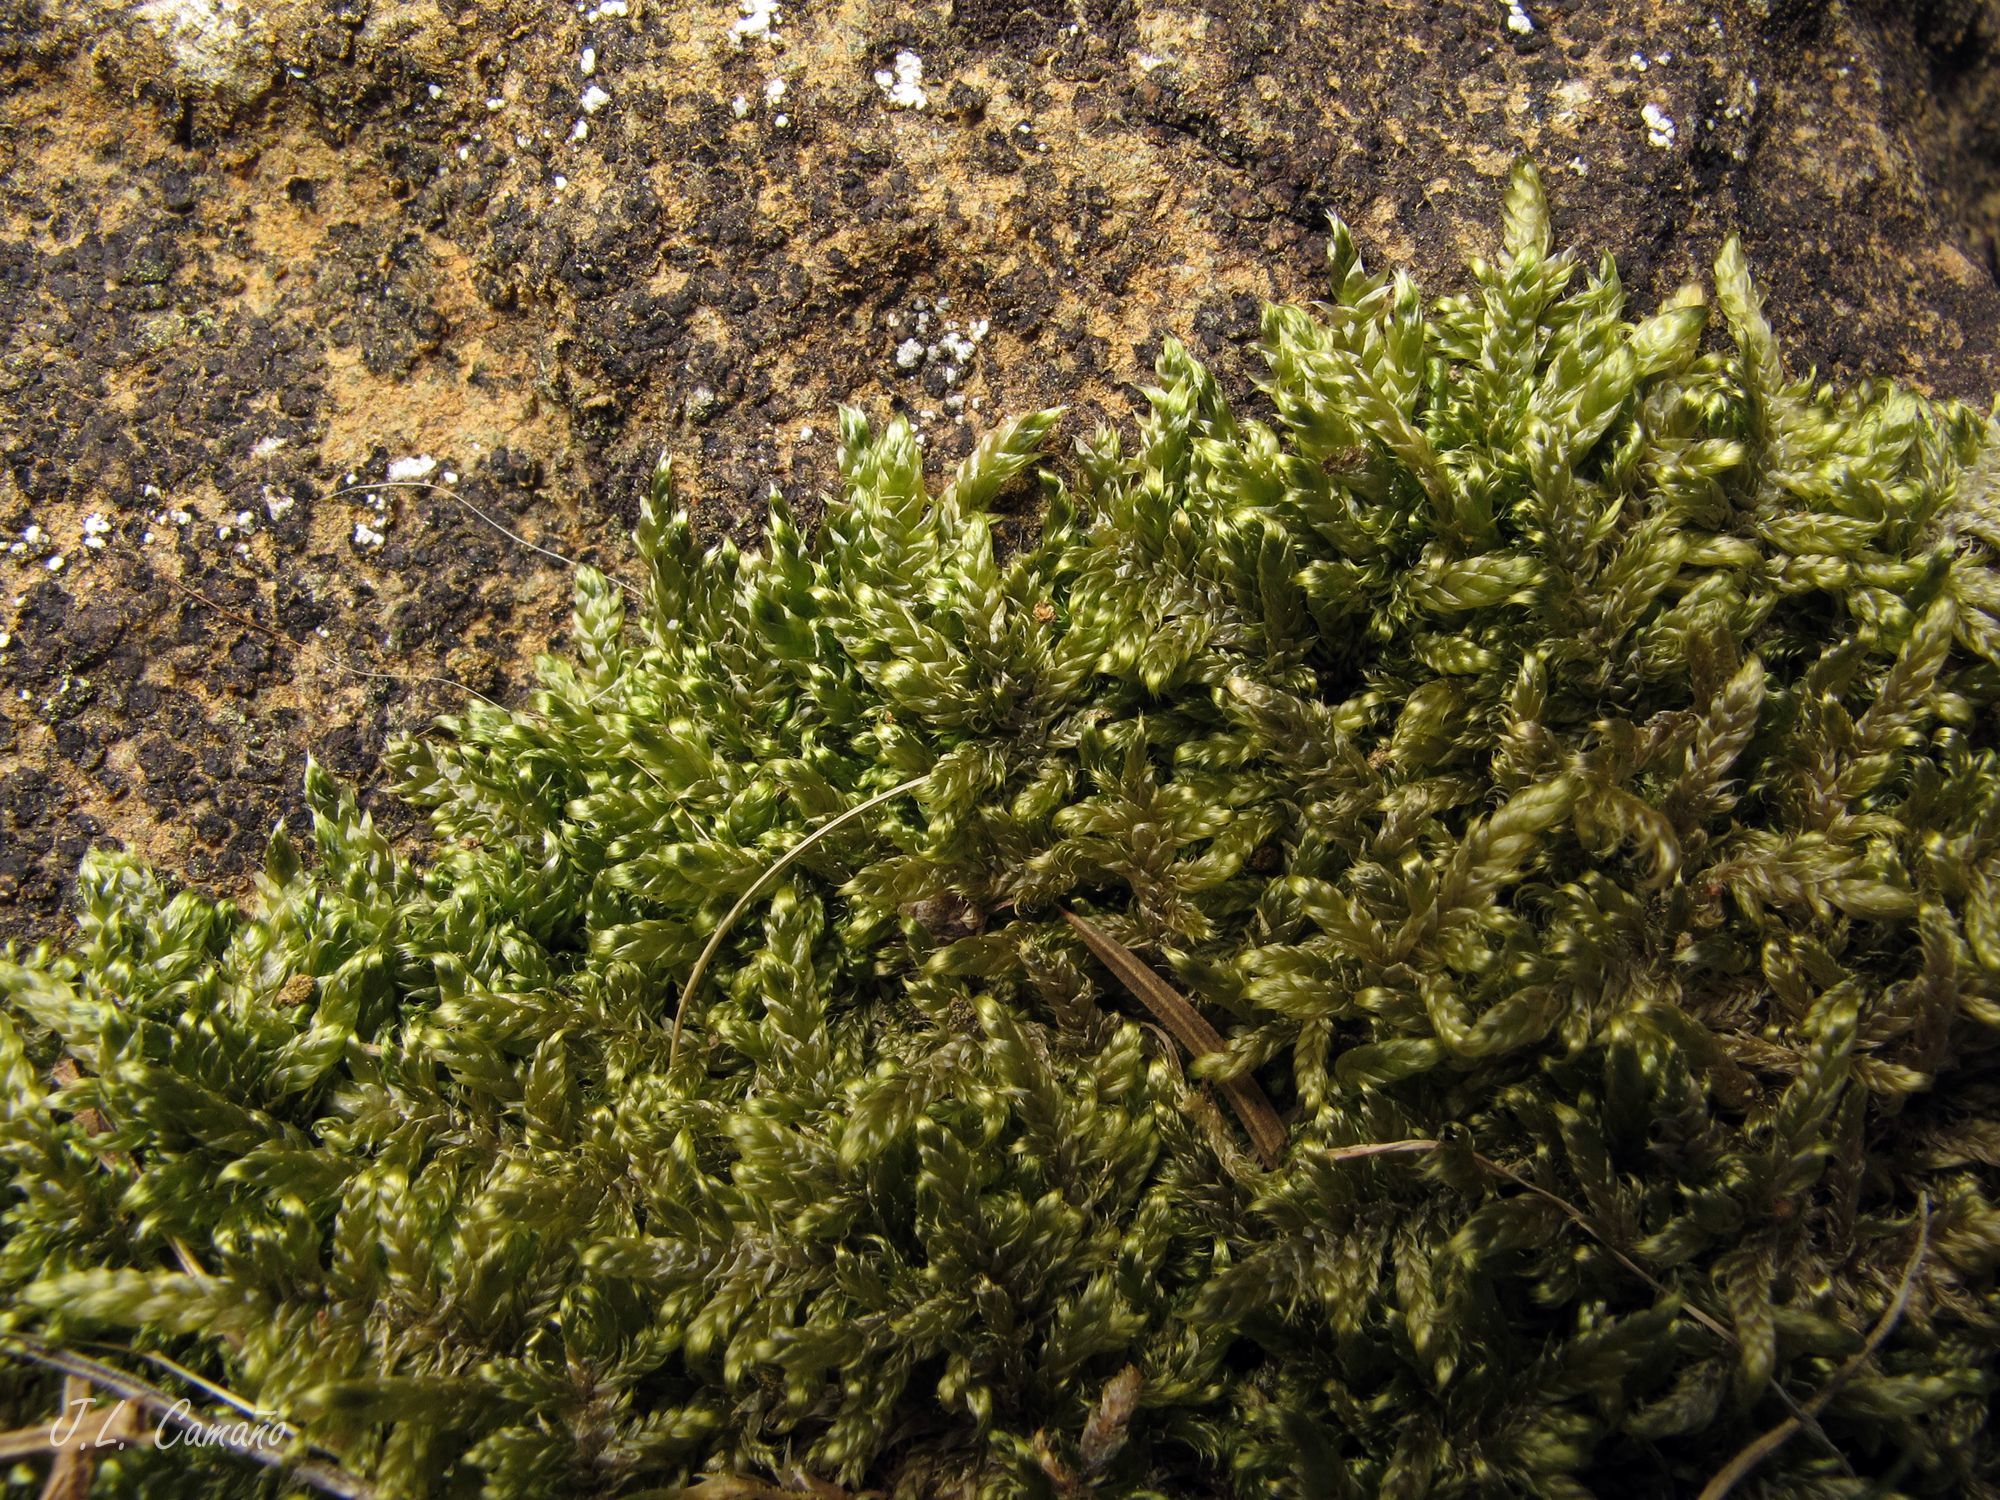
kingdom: Plantae
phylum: Bryophyta
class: Bryopsida
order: Hypnales
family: Hypnaceae
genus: Hypnum
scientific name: Hypnum cupressiforme
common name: Cypress-leaved plait-moss
